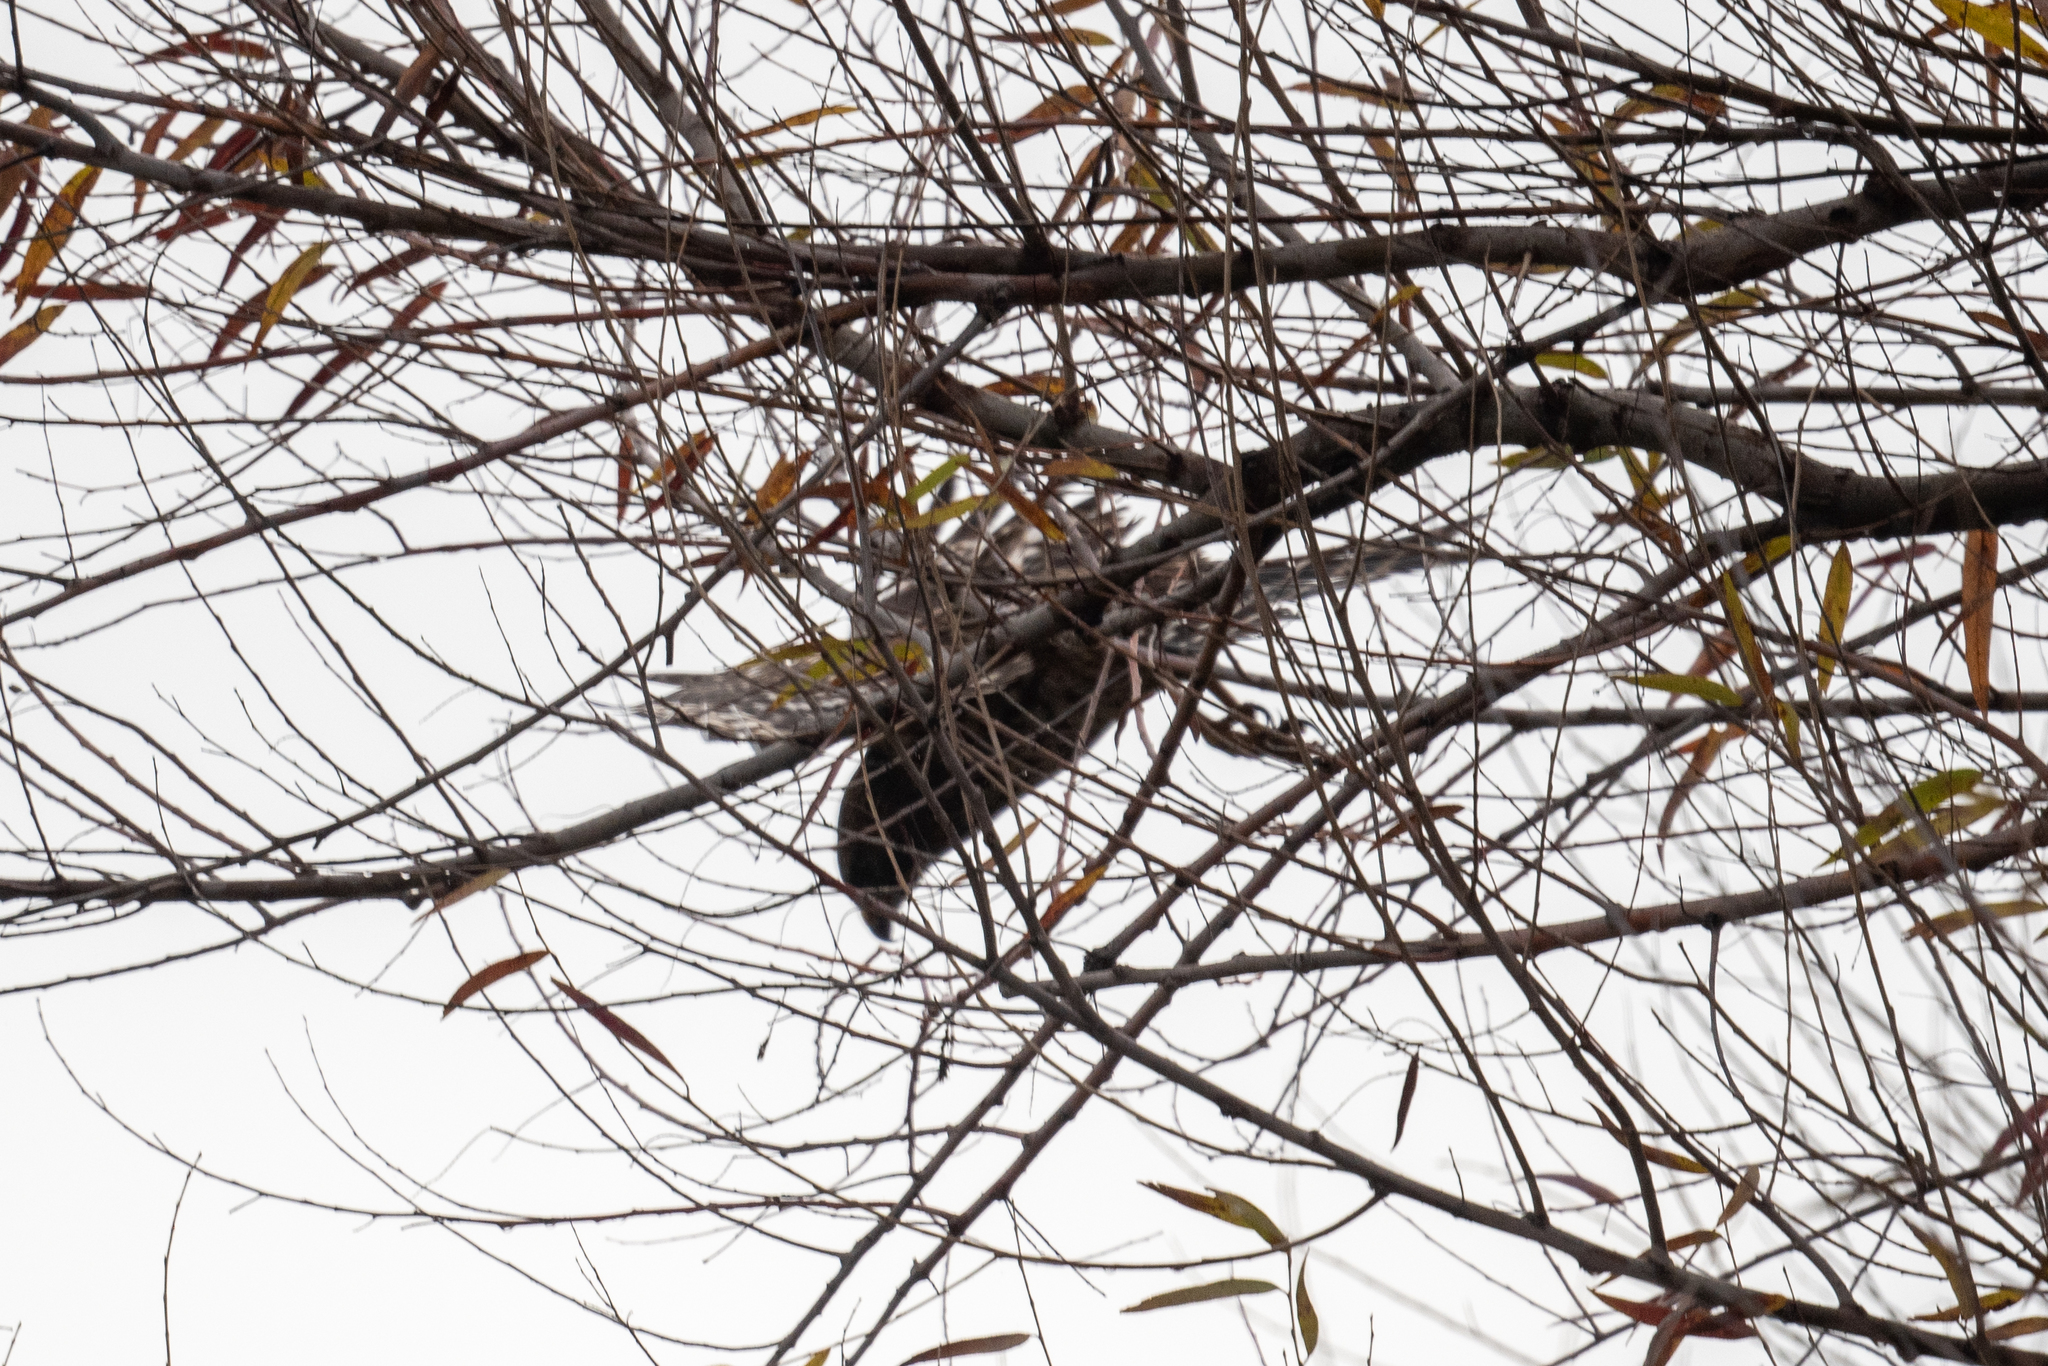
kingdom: Animalia
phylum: Chordata
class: Aves
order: Accipitriformes
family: Accipitridae
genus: Buteo
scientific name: Buteo lineatus
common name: Red-shouldered hawk
